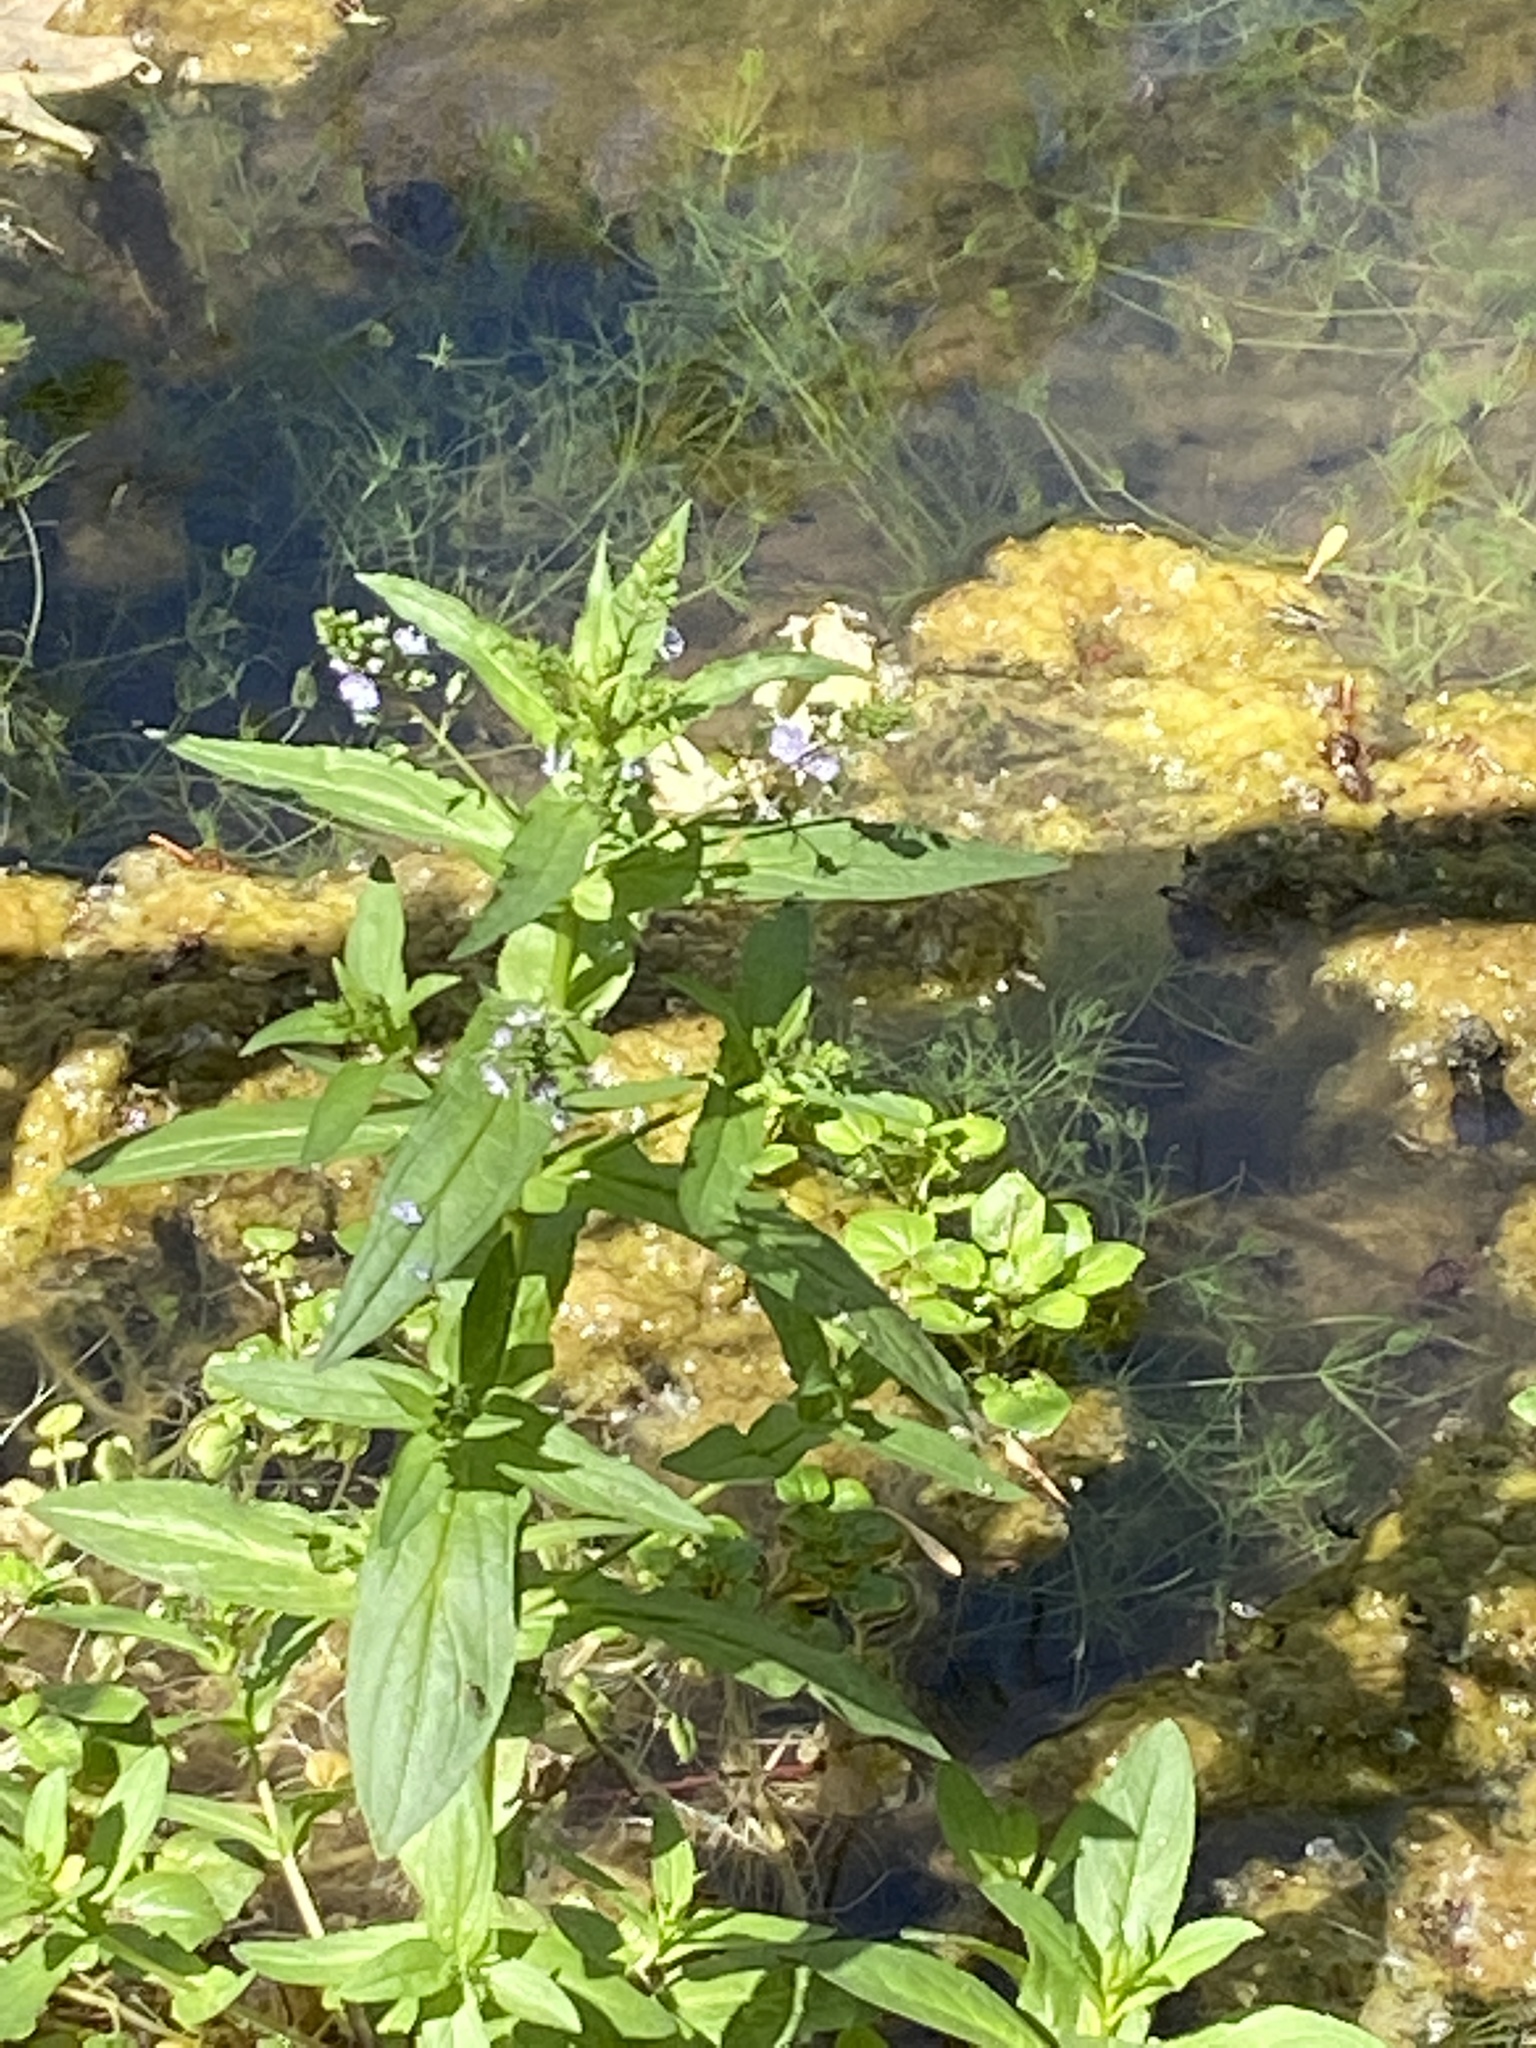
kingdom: Plantae
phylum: Tracheophyta
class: Magnoliopsida
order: Lamiales
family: Plantaginaceae
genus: Veronica
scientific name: Veronica anagallis-aquatica
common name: Water speedwell
